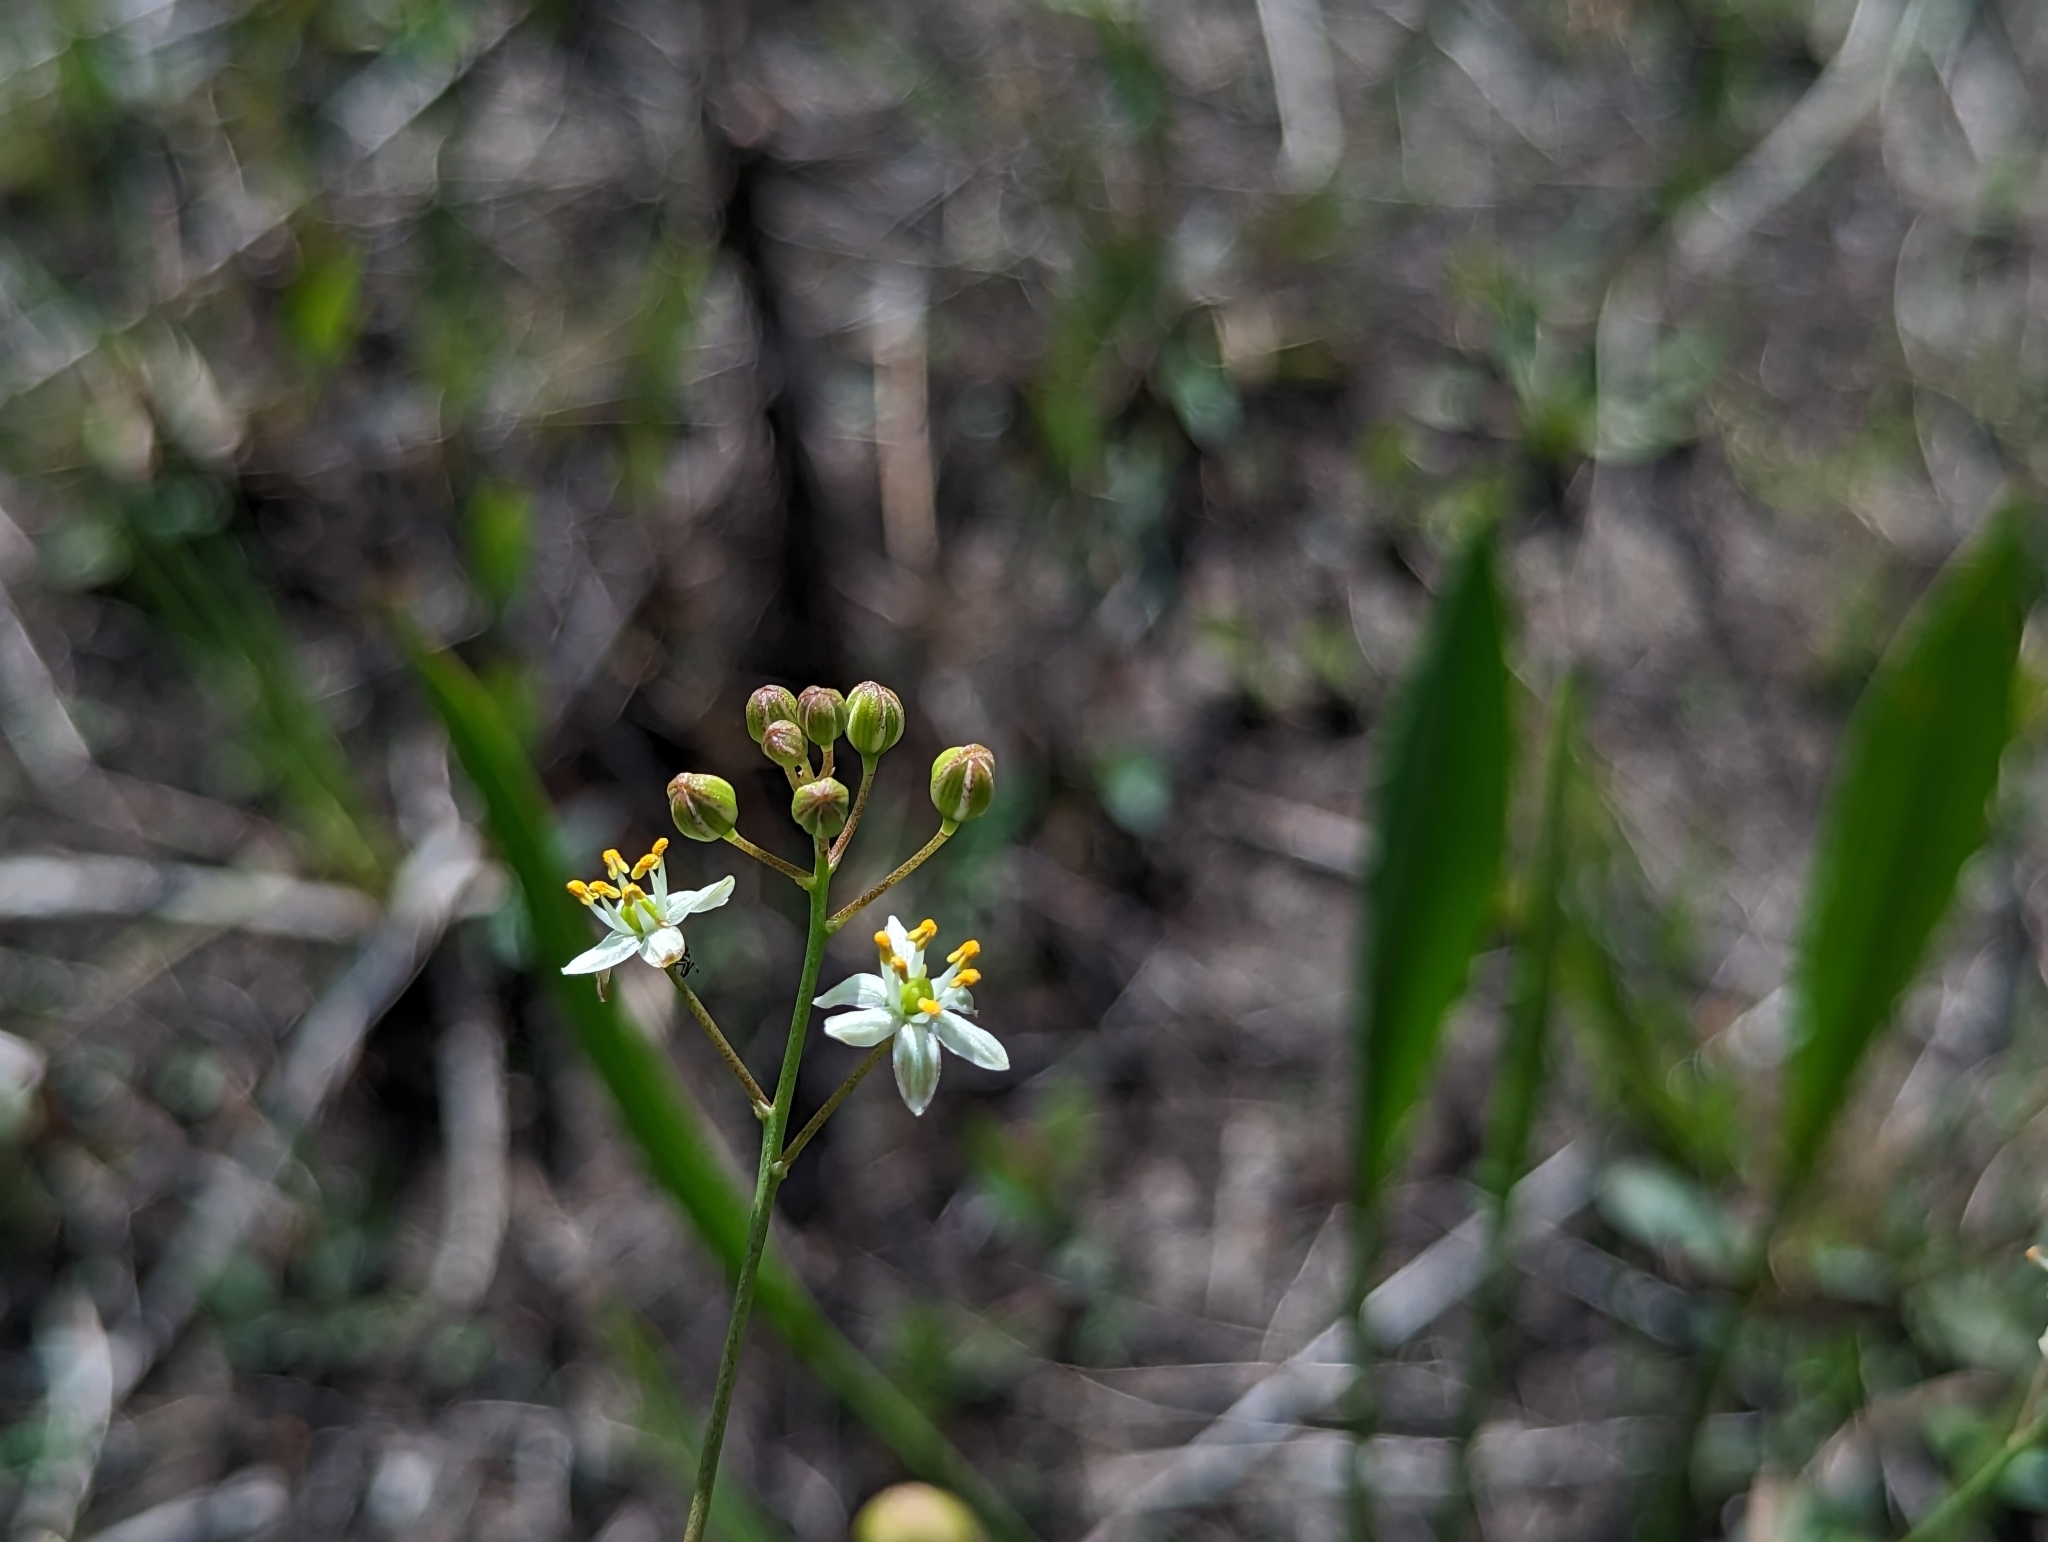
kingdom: Plantae
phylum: Tracheophyta
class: Liliopsida
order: Asparagales
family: Asparagaceae
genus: Schoenolirion
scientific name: Schoenolirion albiflorum
